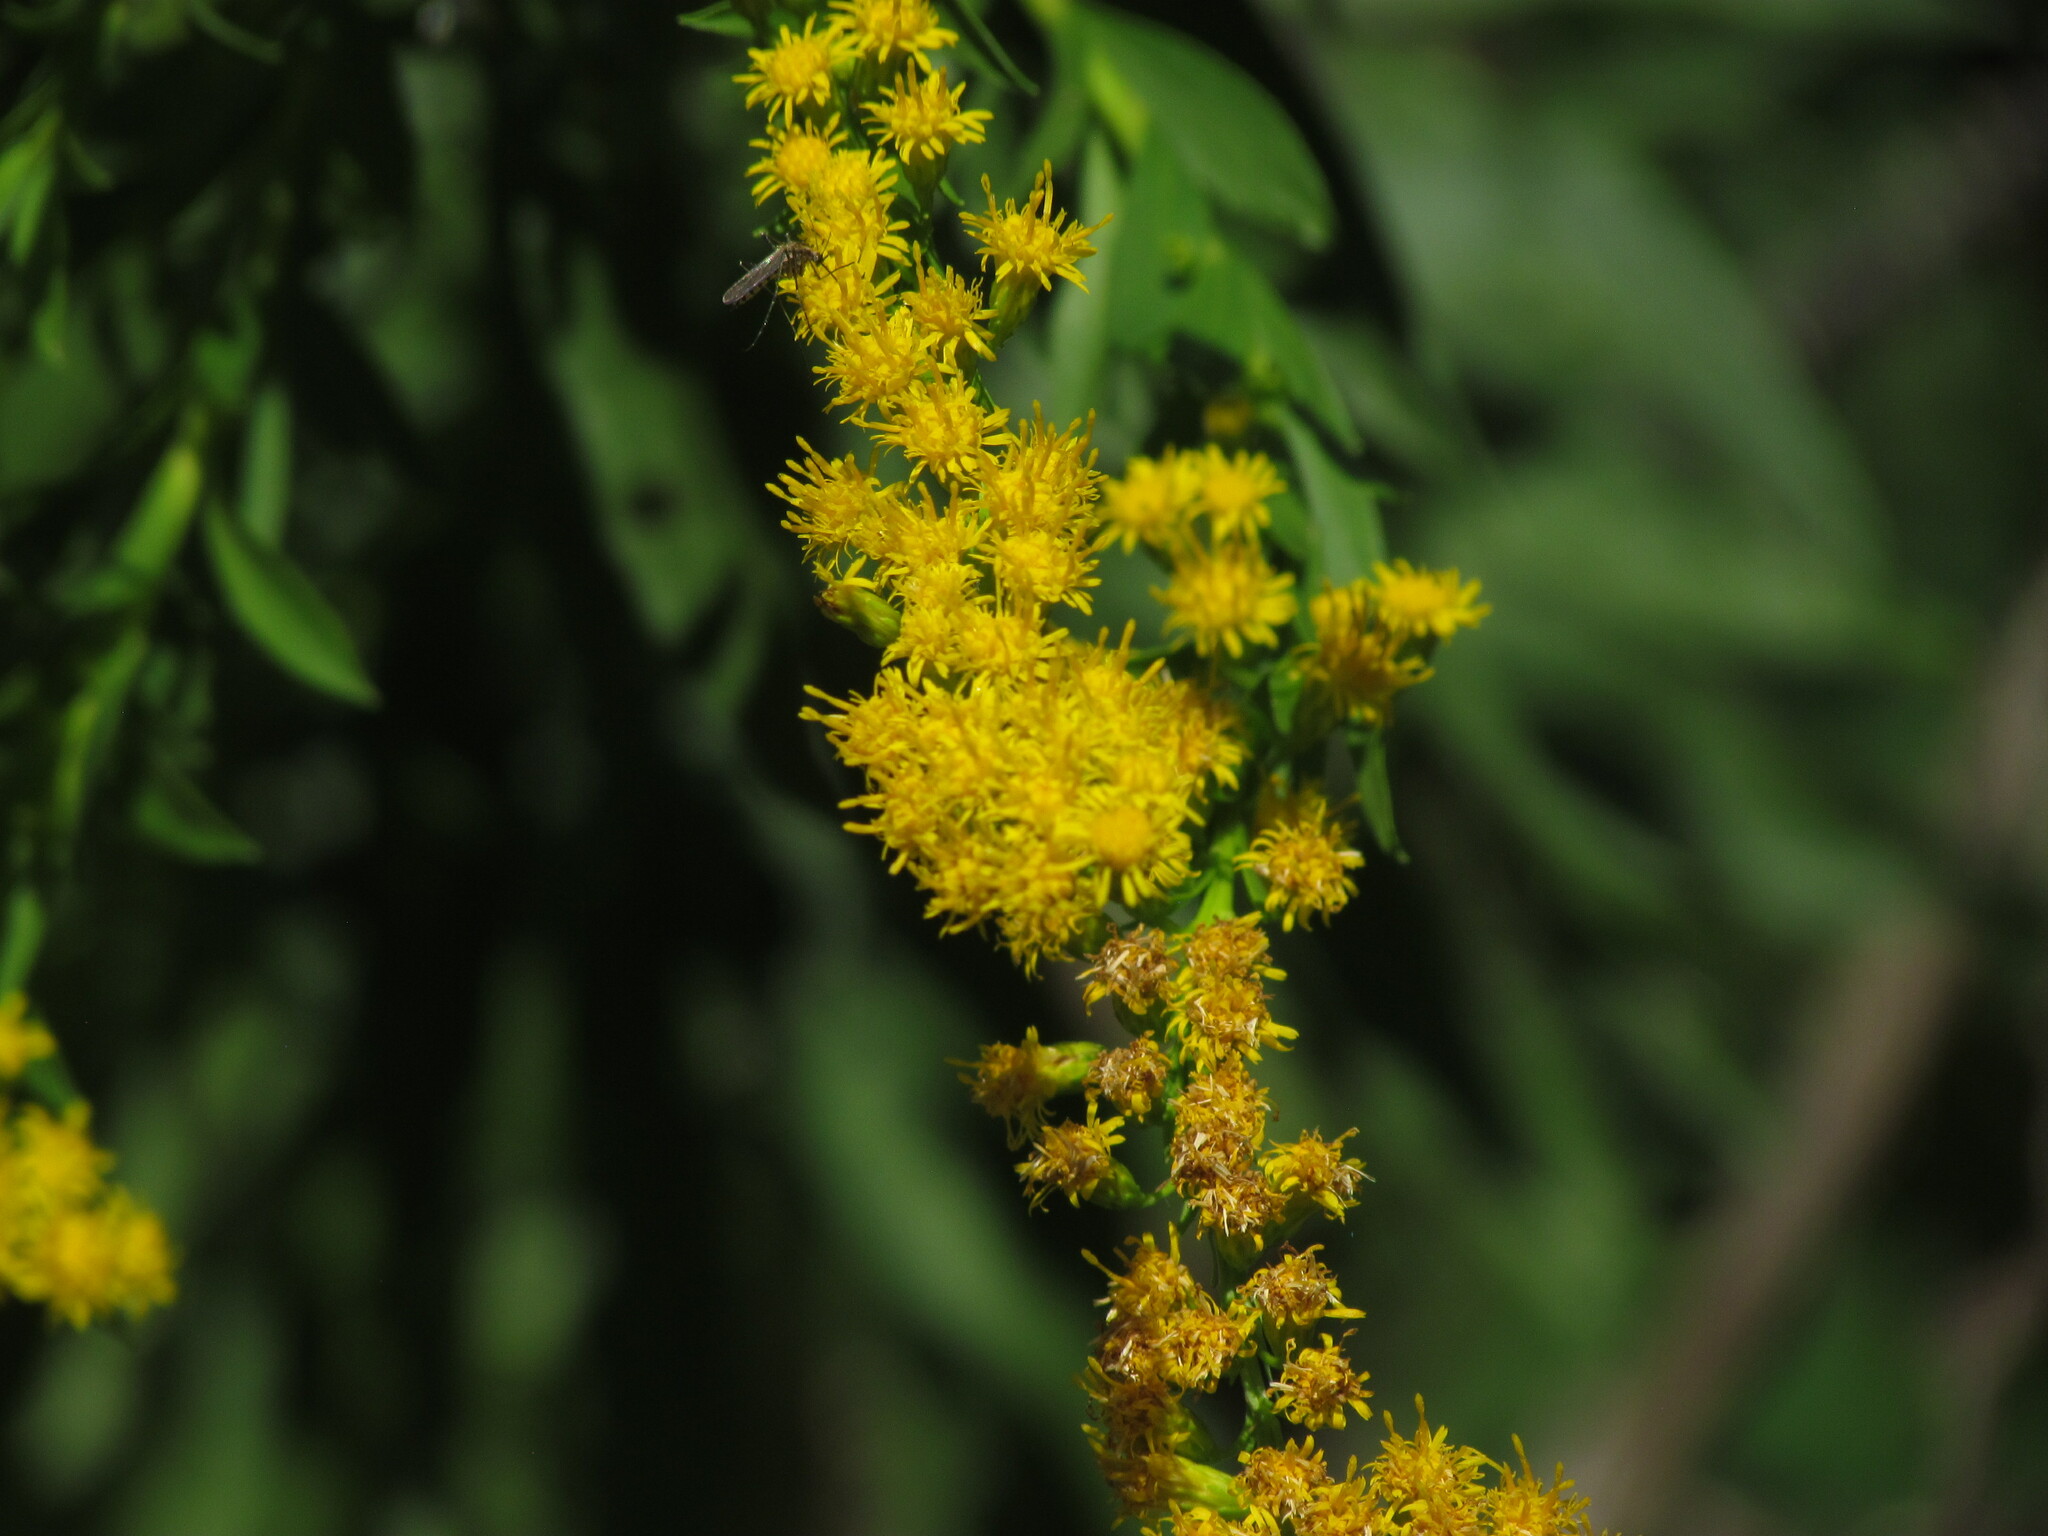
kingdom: Plantae
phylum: Tracheophyta
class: Magnoliopsida
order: Asterales
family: Asteraceae
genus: Solidago
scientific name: Solidago chilensis
